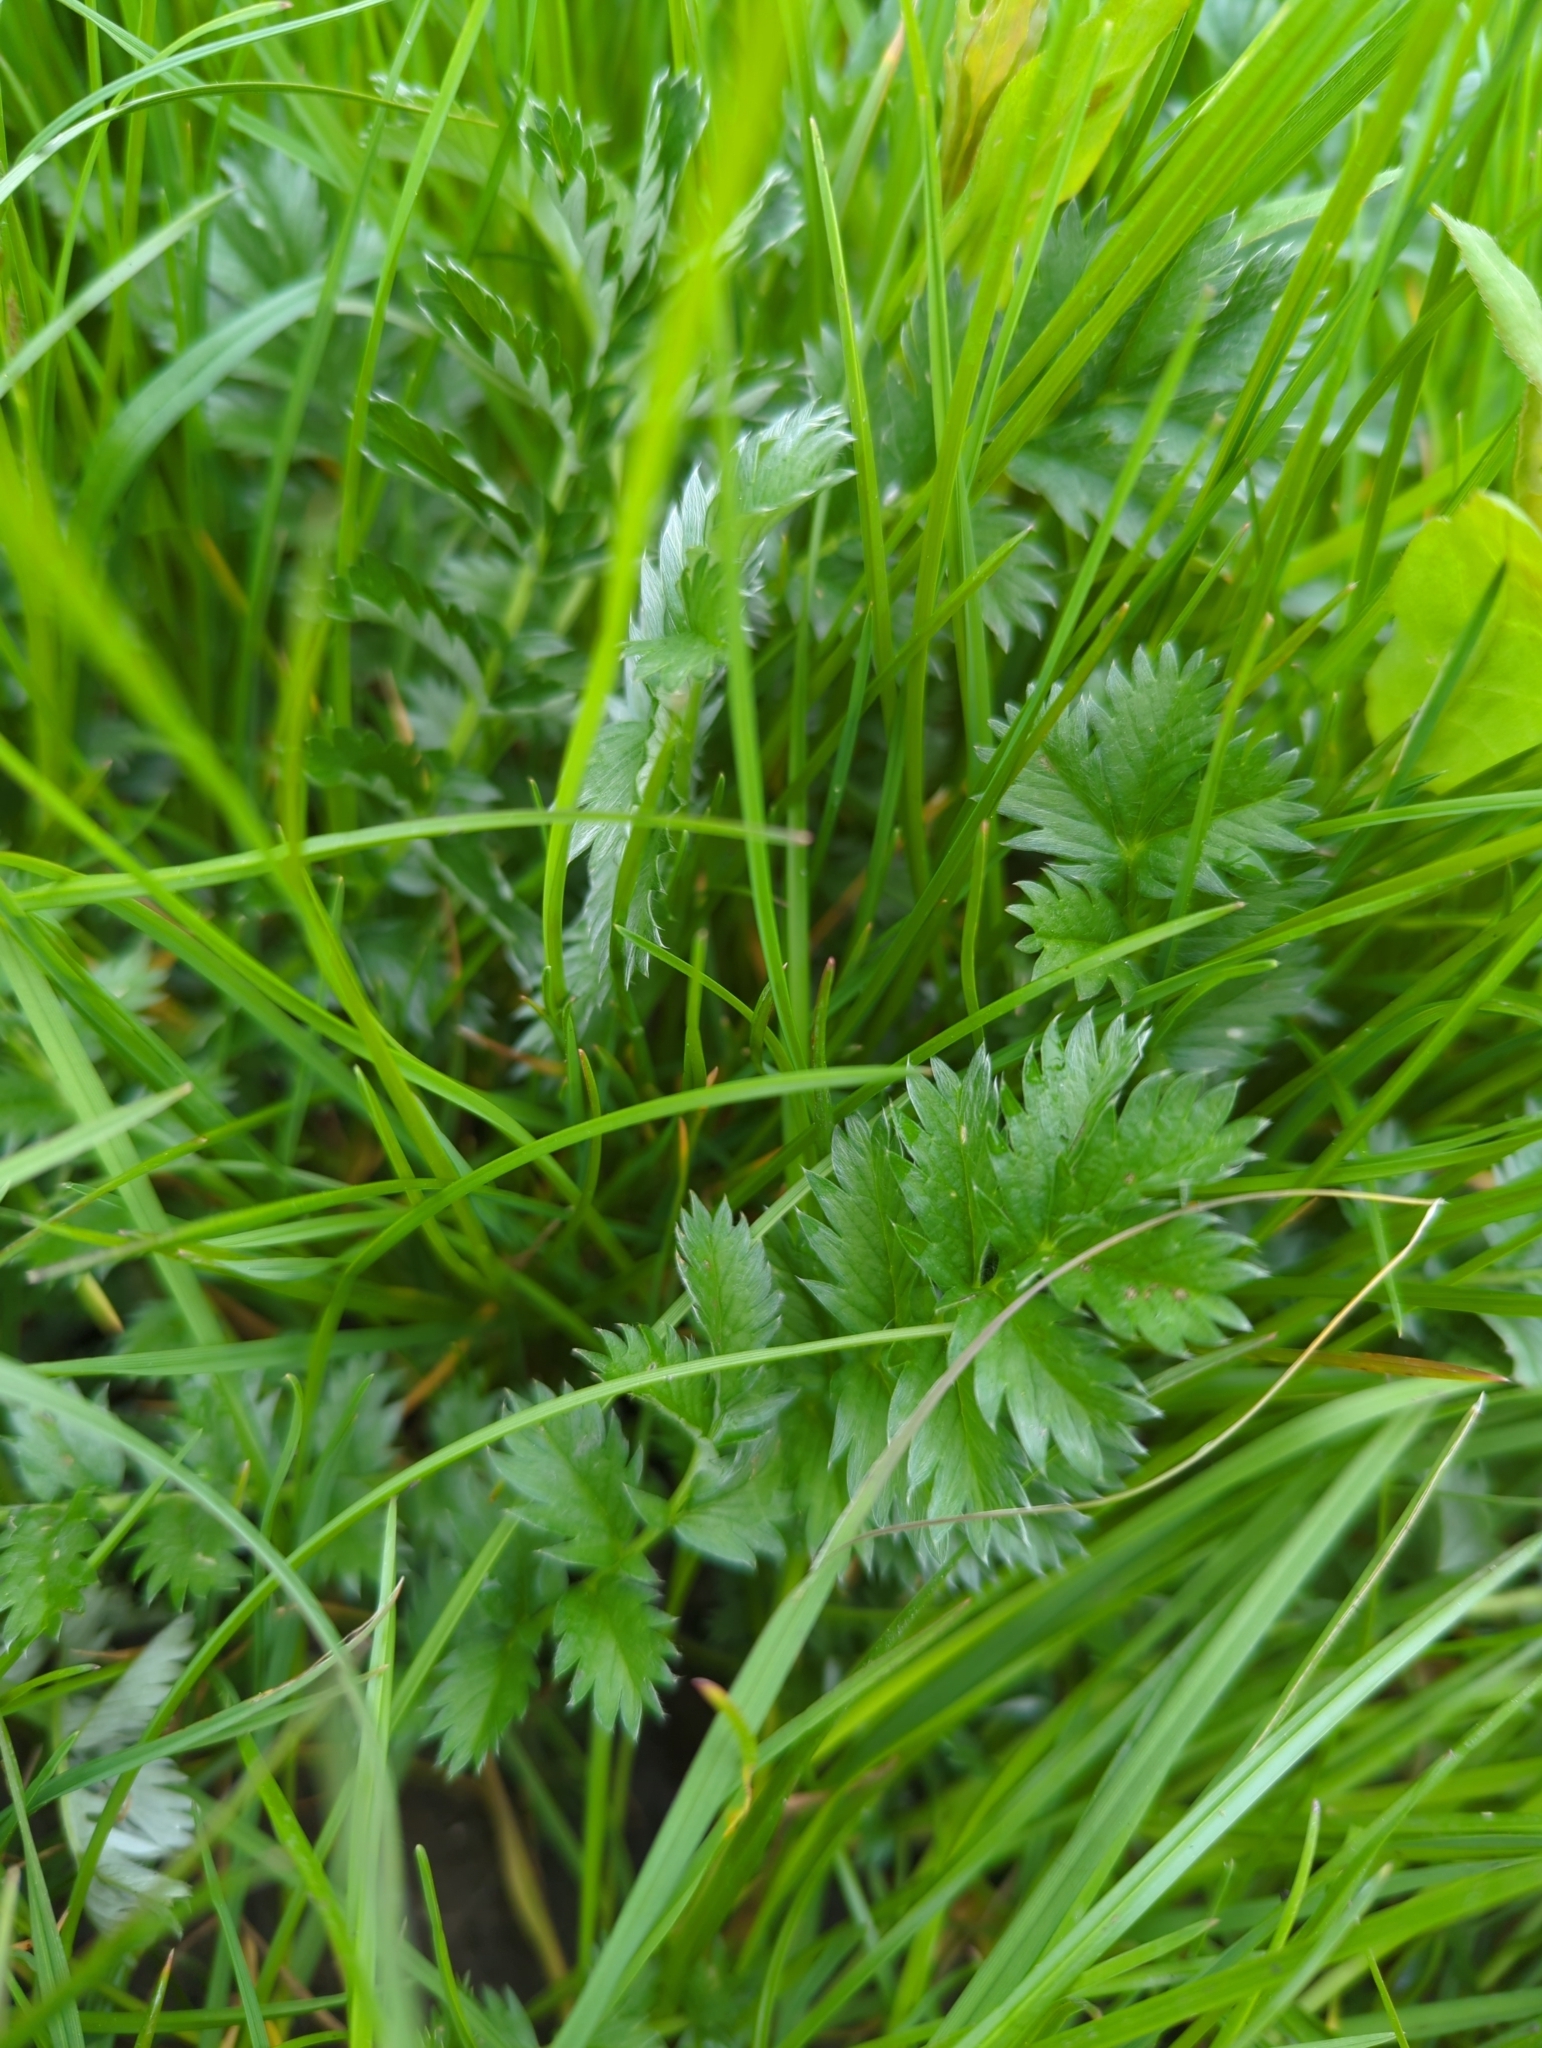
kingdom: Plantae
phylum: Tracheophyta
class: Magnoliopsida
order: Rosales
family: Rosaceae
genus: Argentina
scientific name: Argentina anserina
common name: Common silverweed
